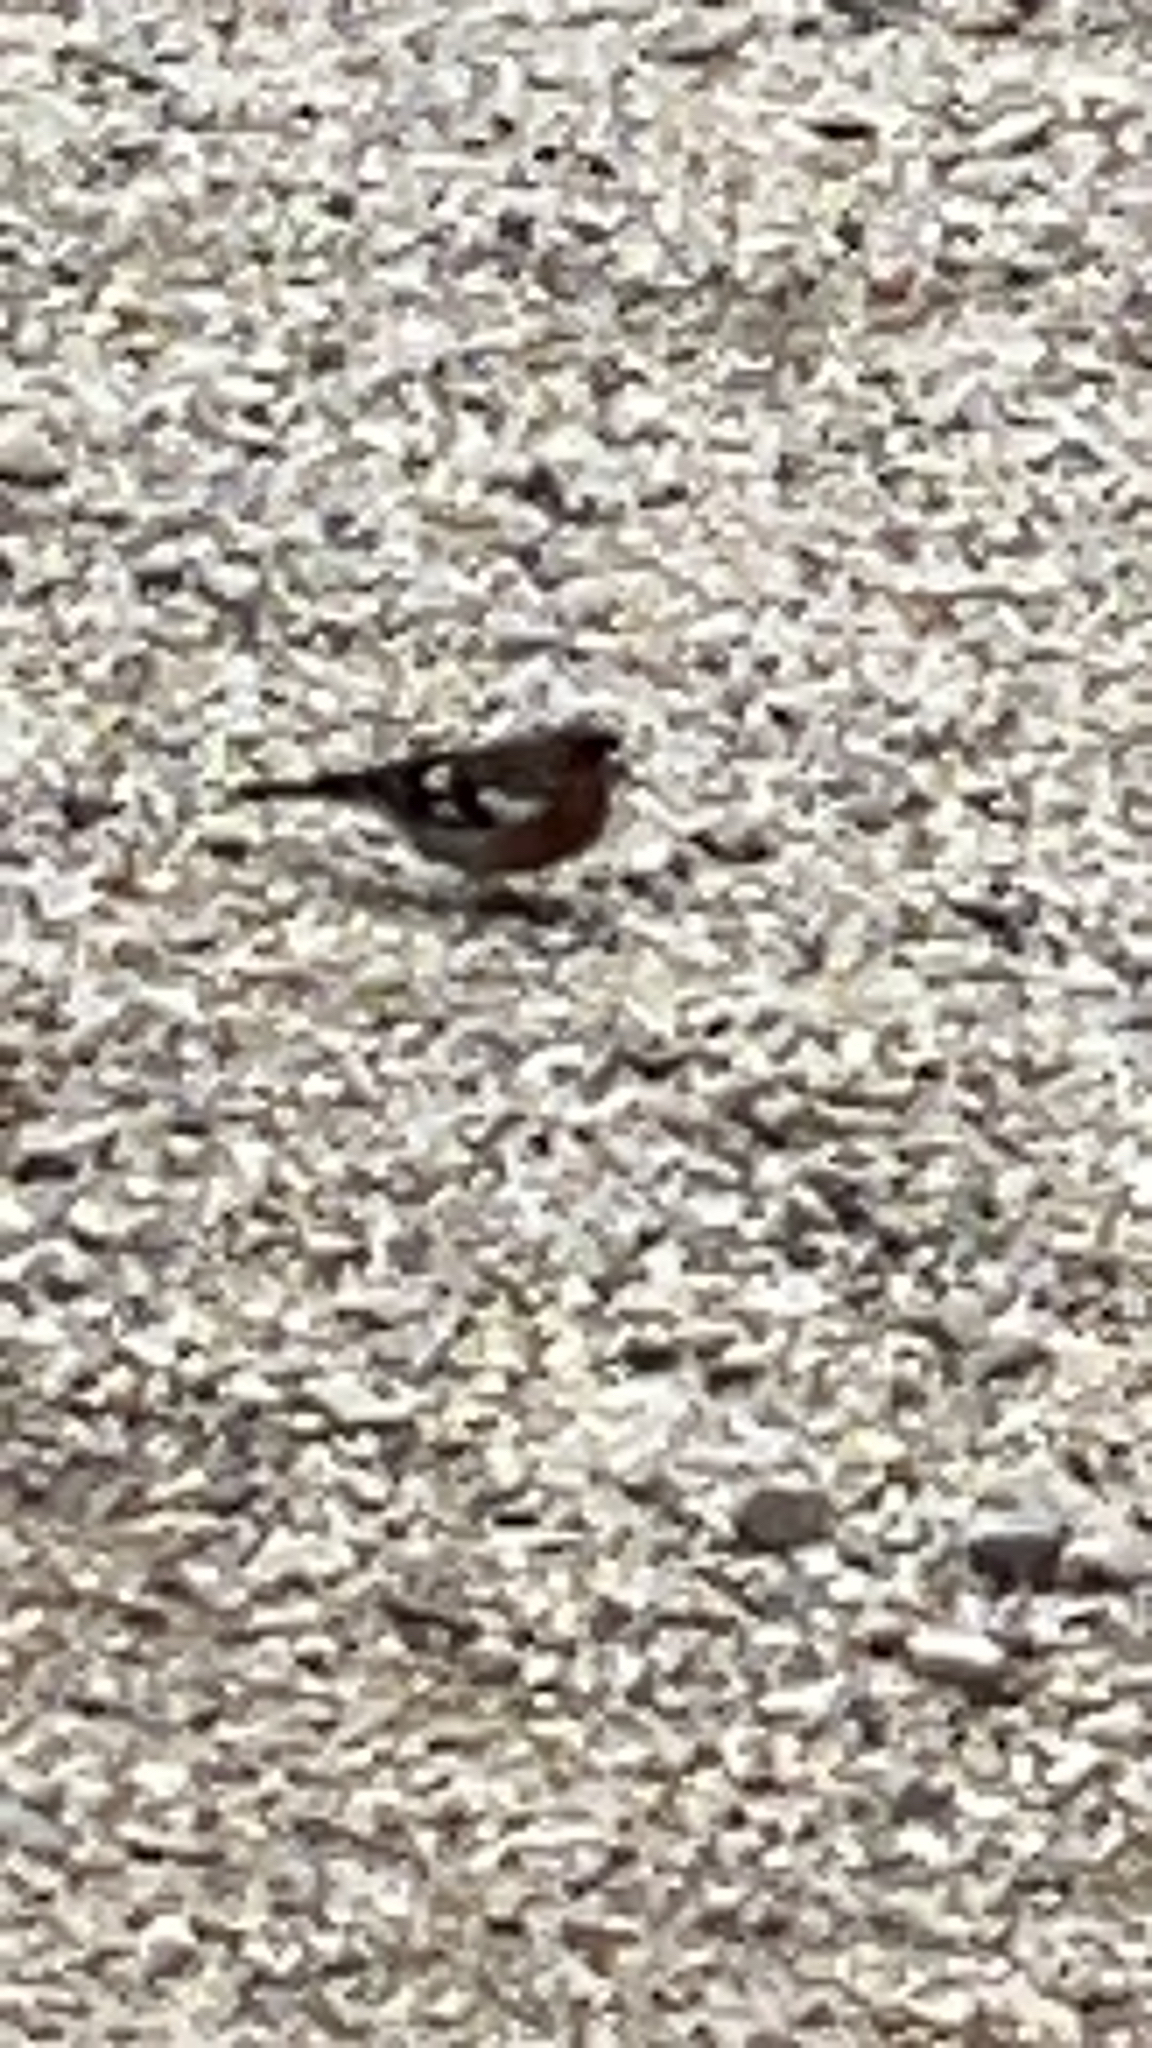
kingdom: Animalia
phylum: Chordata
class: Aves
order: Passeriformes
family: Fringillidae
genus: Fringilla
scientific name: Fringilla coelebs
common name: Common chaffinch
